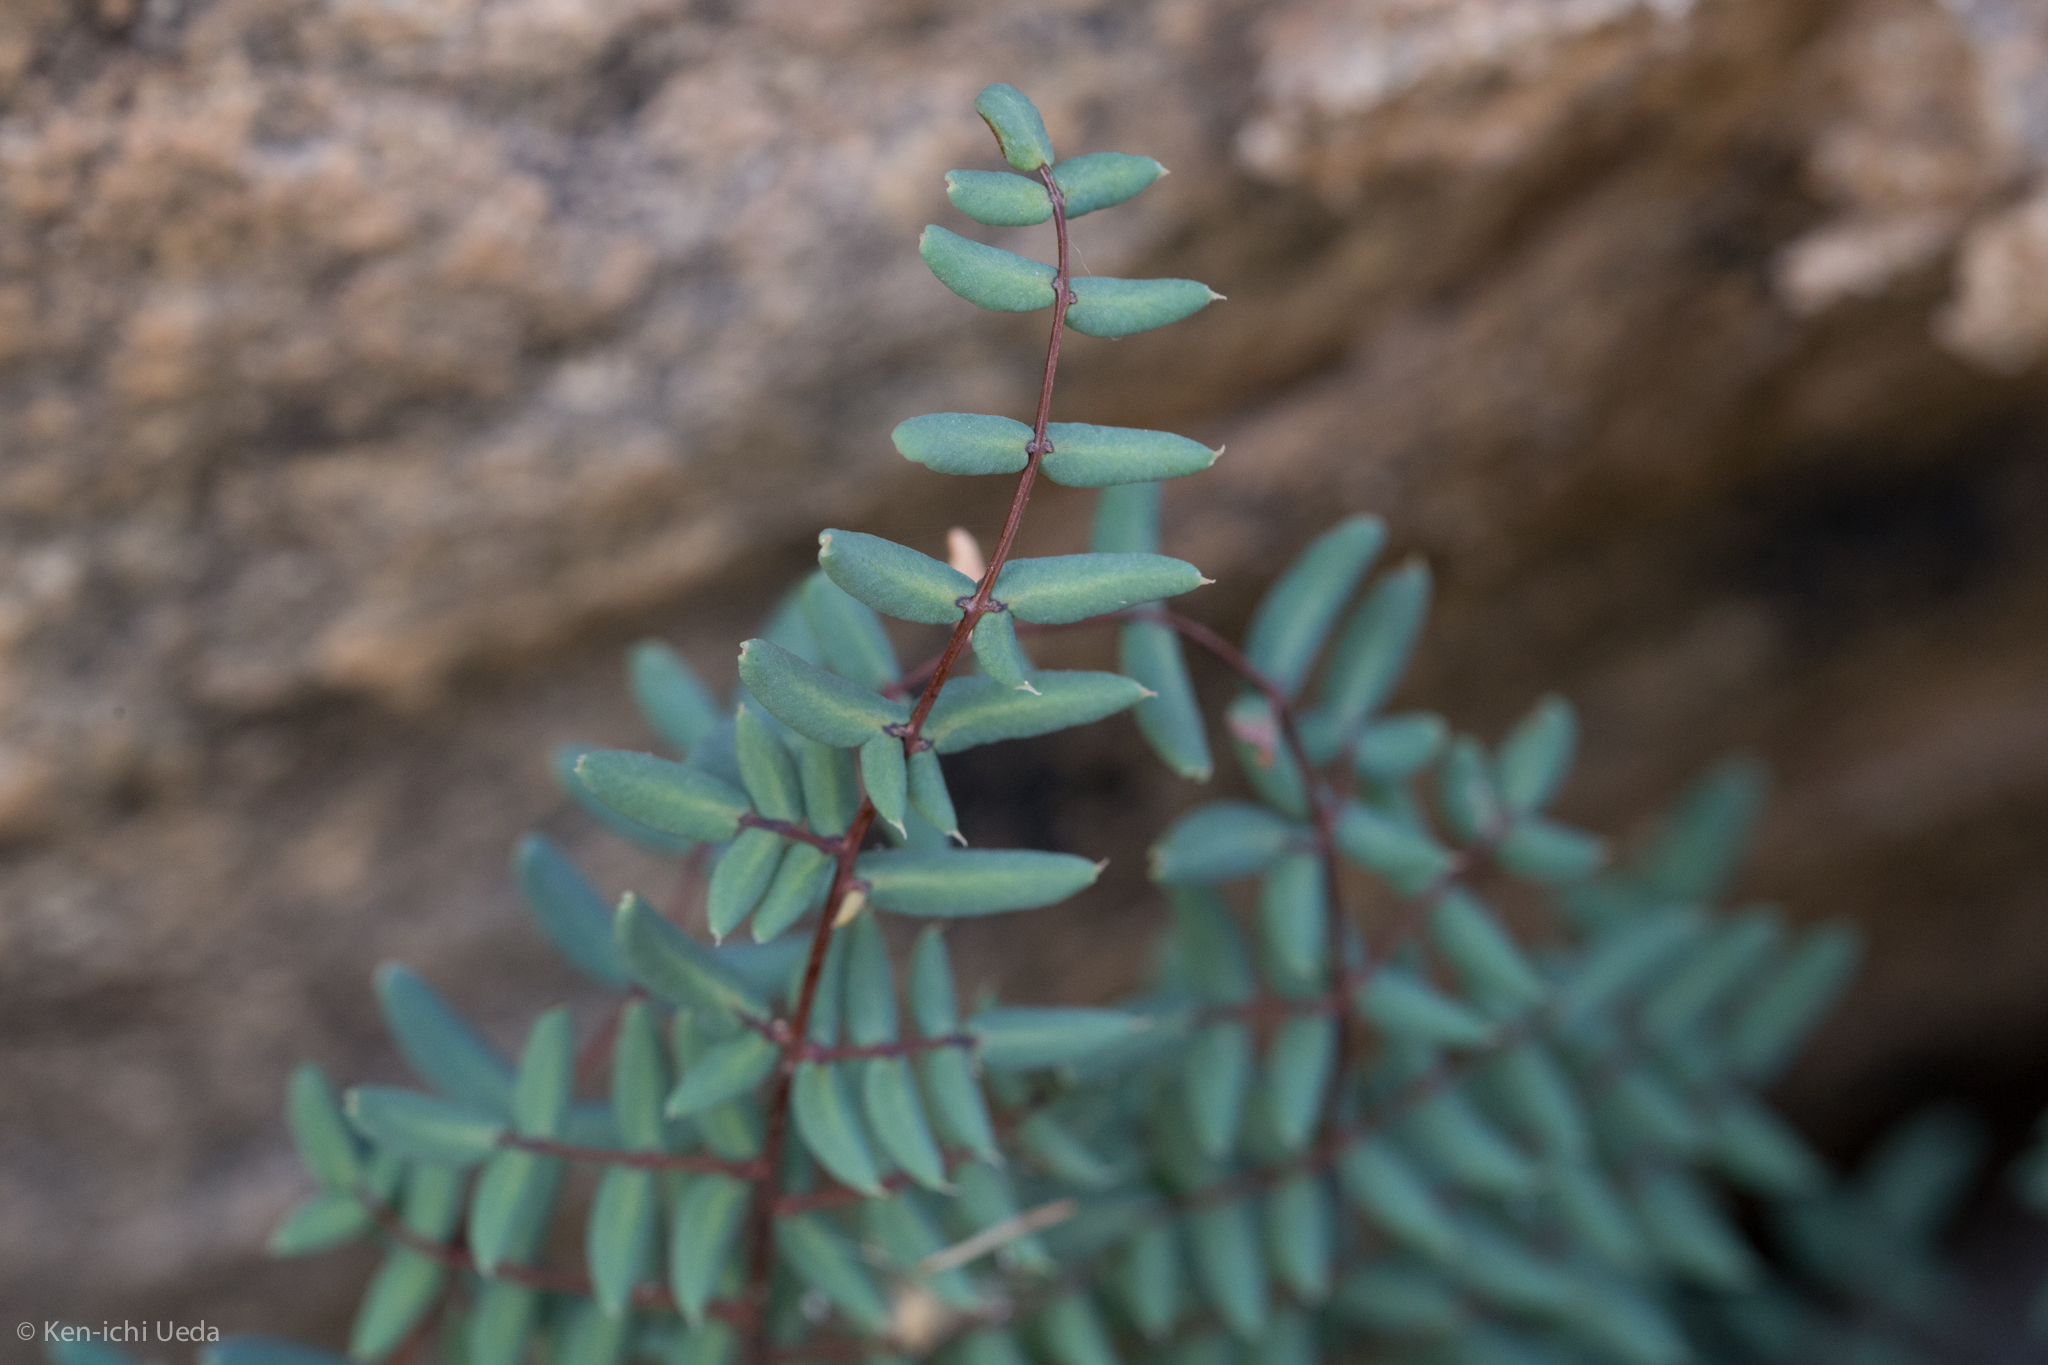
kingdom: Plantae
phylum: Tracheophyta
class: Polypodiopsida
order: Polypodiales
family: Pteridaceae
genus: Pellaea
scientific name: Pellaea truncata
